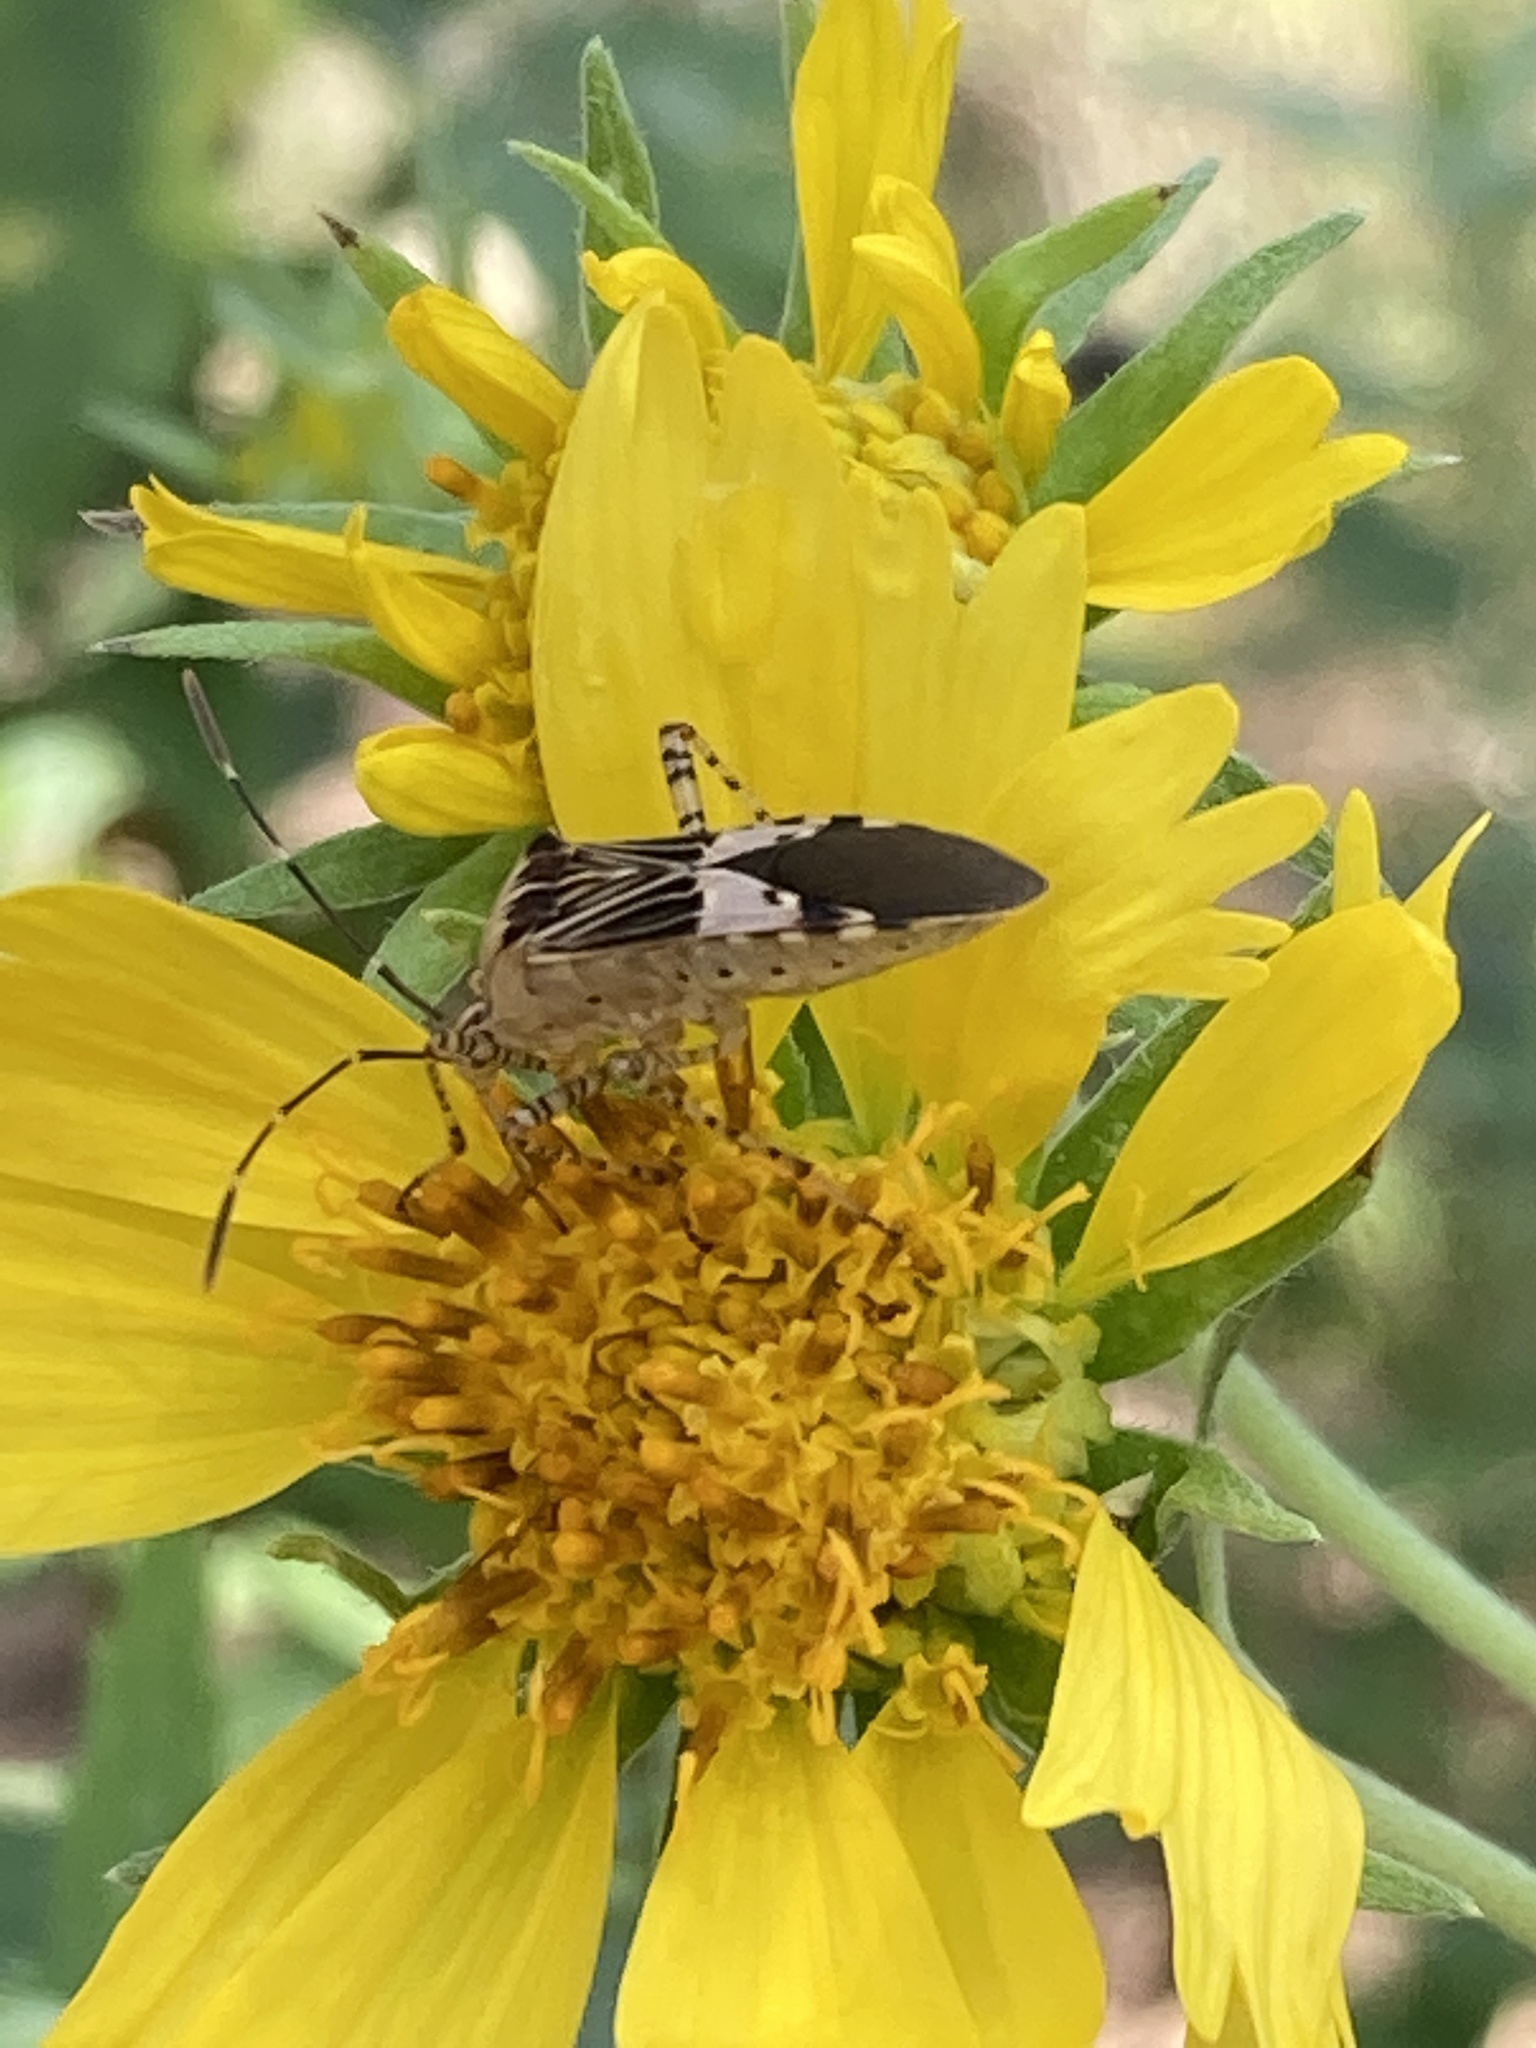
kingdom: Animalia
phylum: Arthropoda
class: Insecta
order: Hemiptera
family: Coreidae
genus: Hypselonotus
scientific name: Hypselonotus punctiventris
